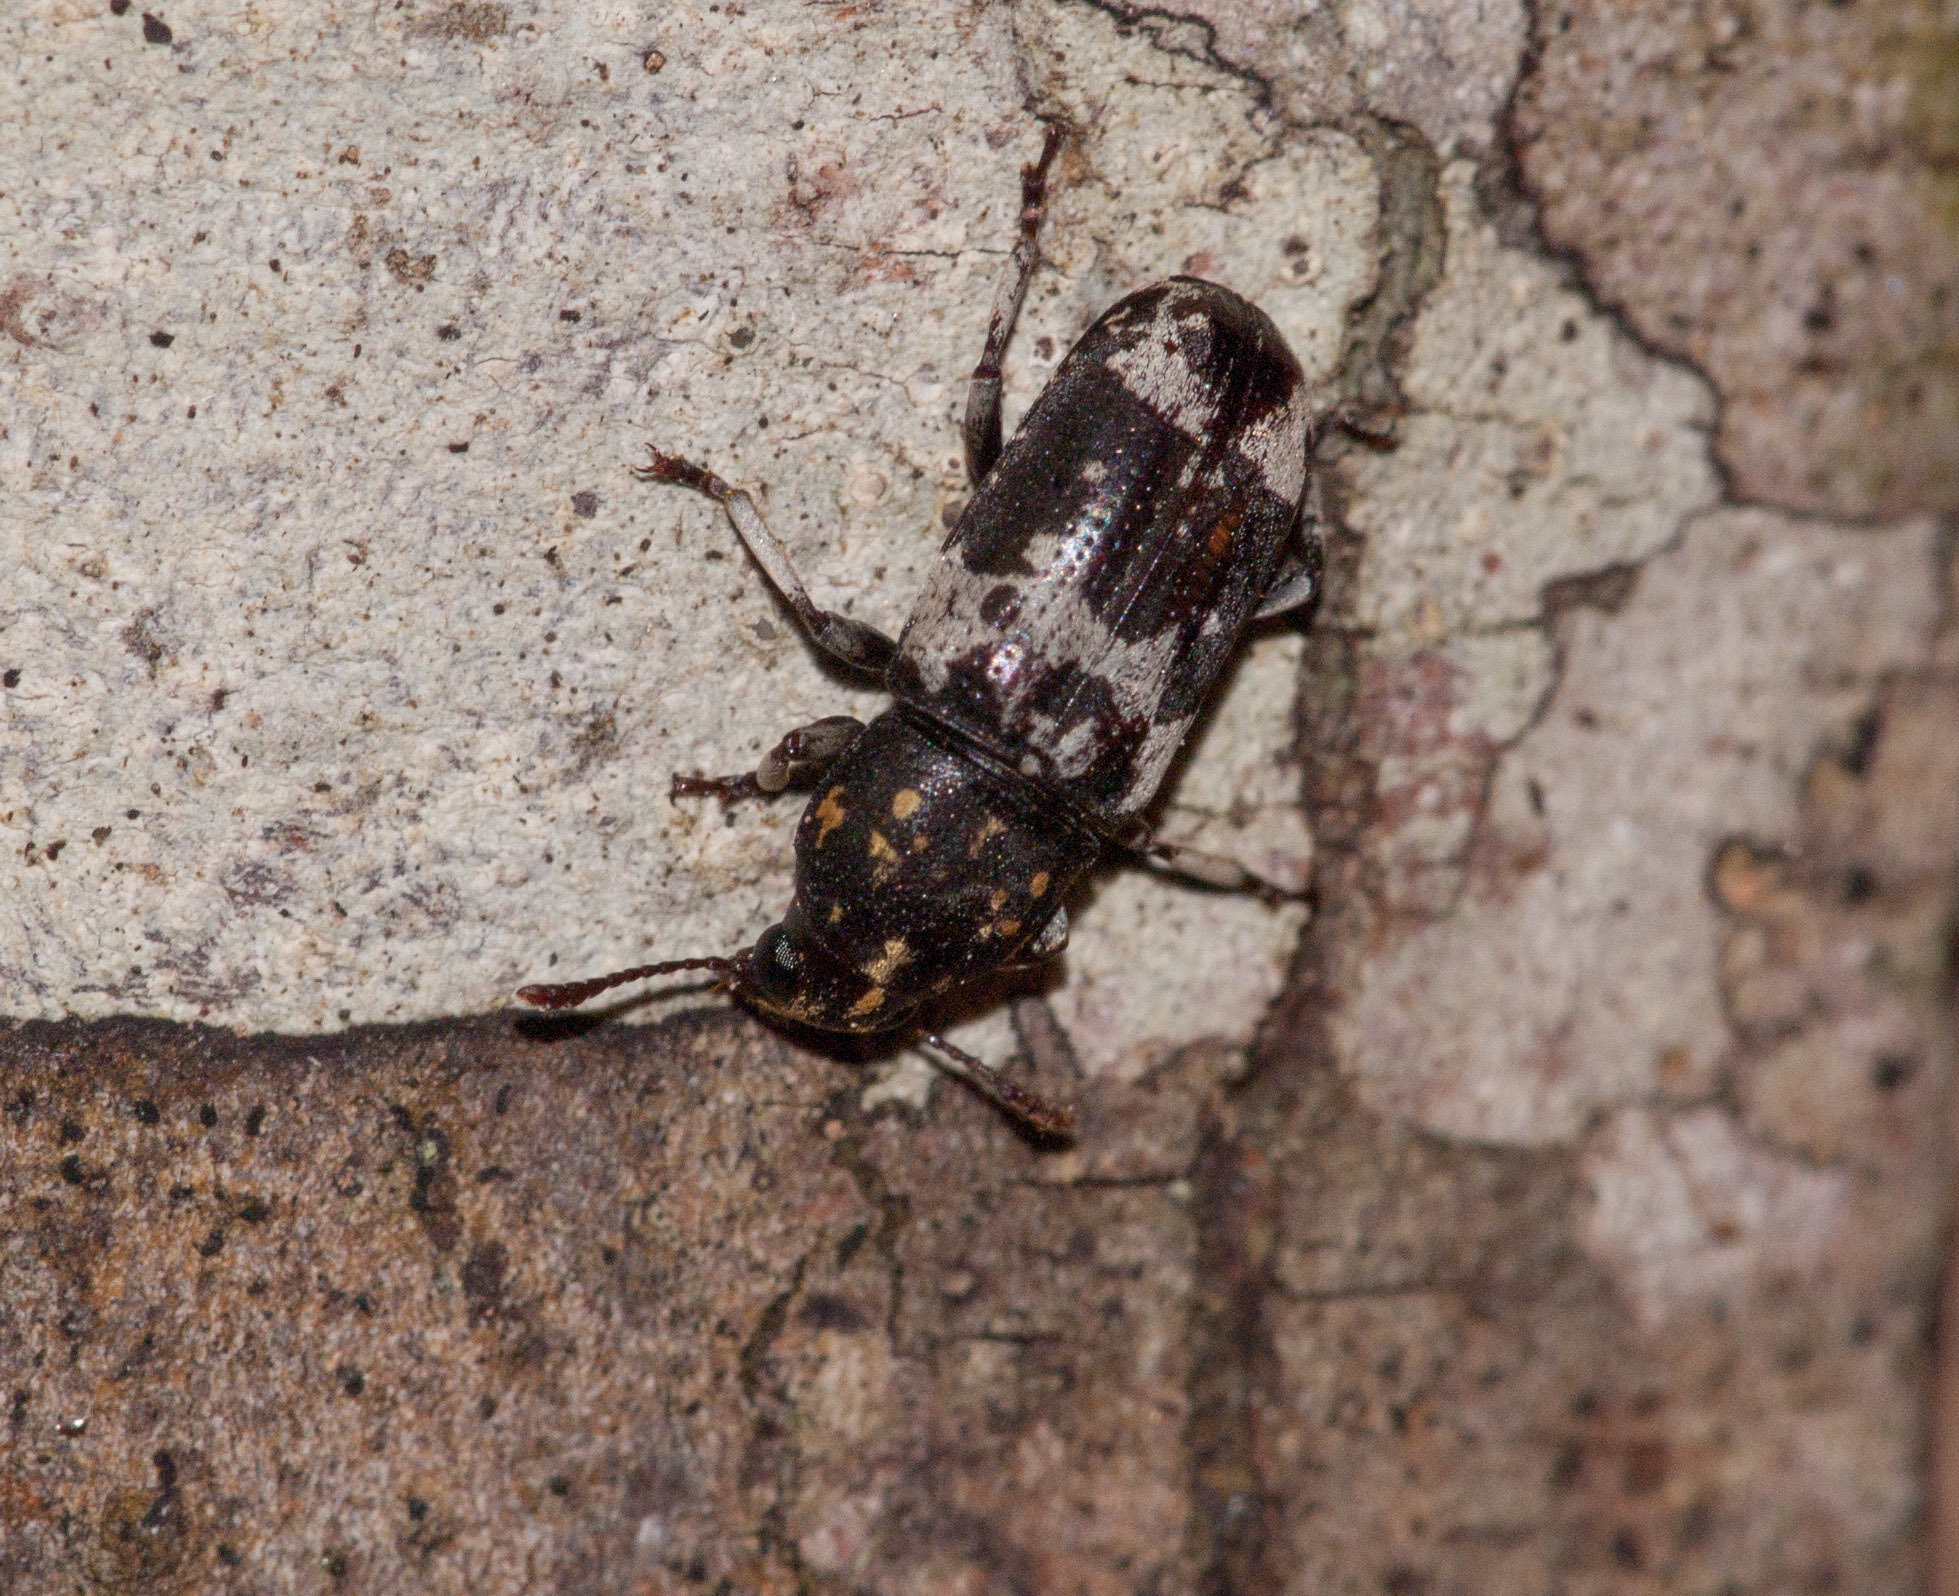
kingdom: Animalia
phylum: Arthropoda
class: Insecta
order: Coleoptera
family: Anthribidae
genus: Basitropis
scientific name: Basitropis relicta
